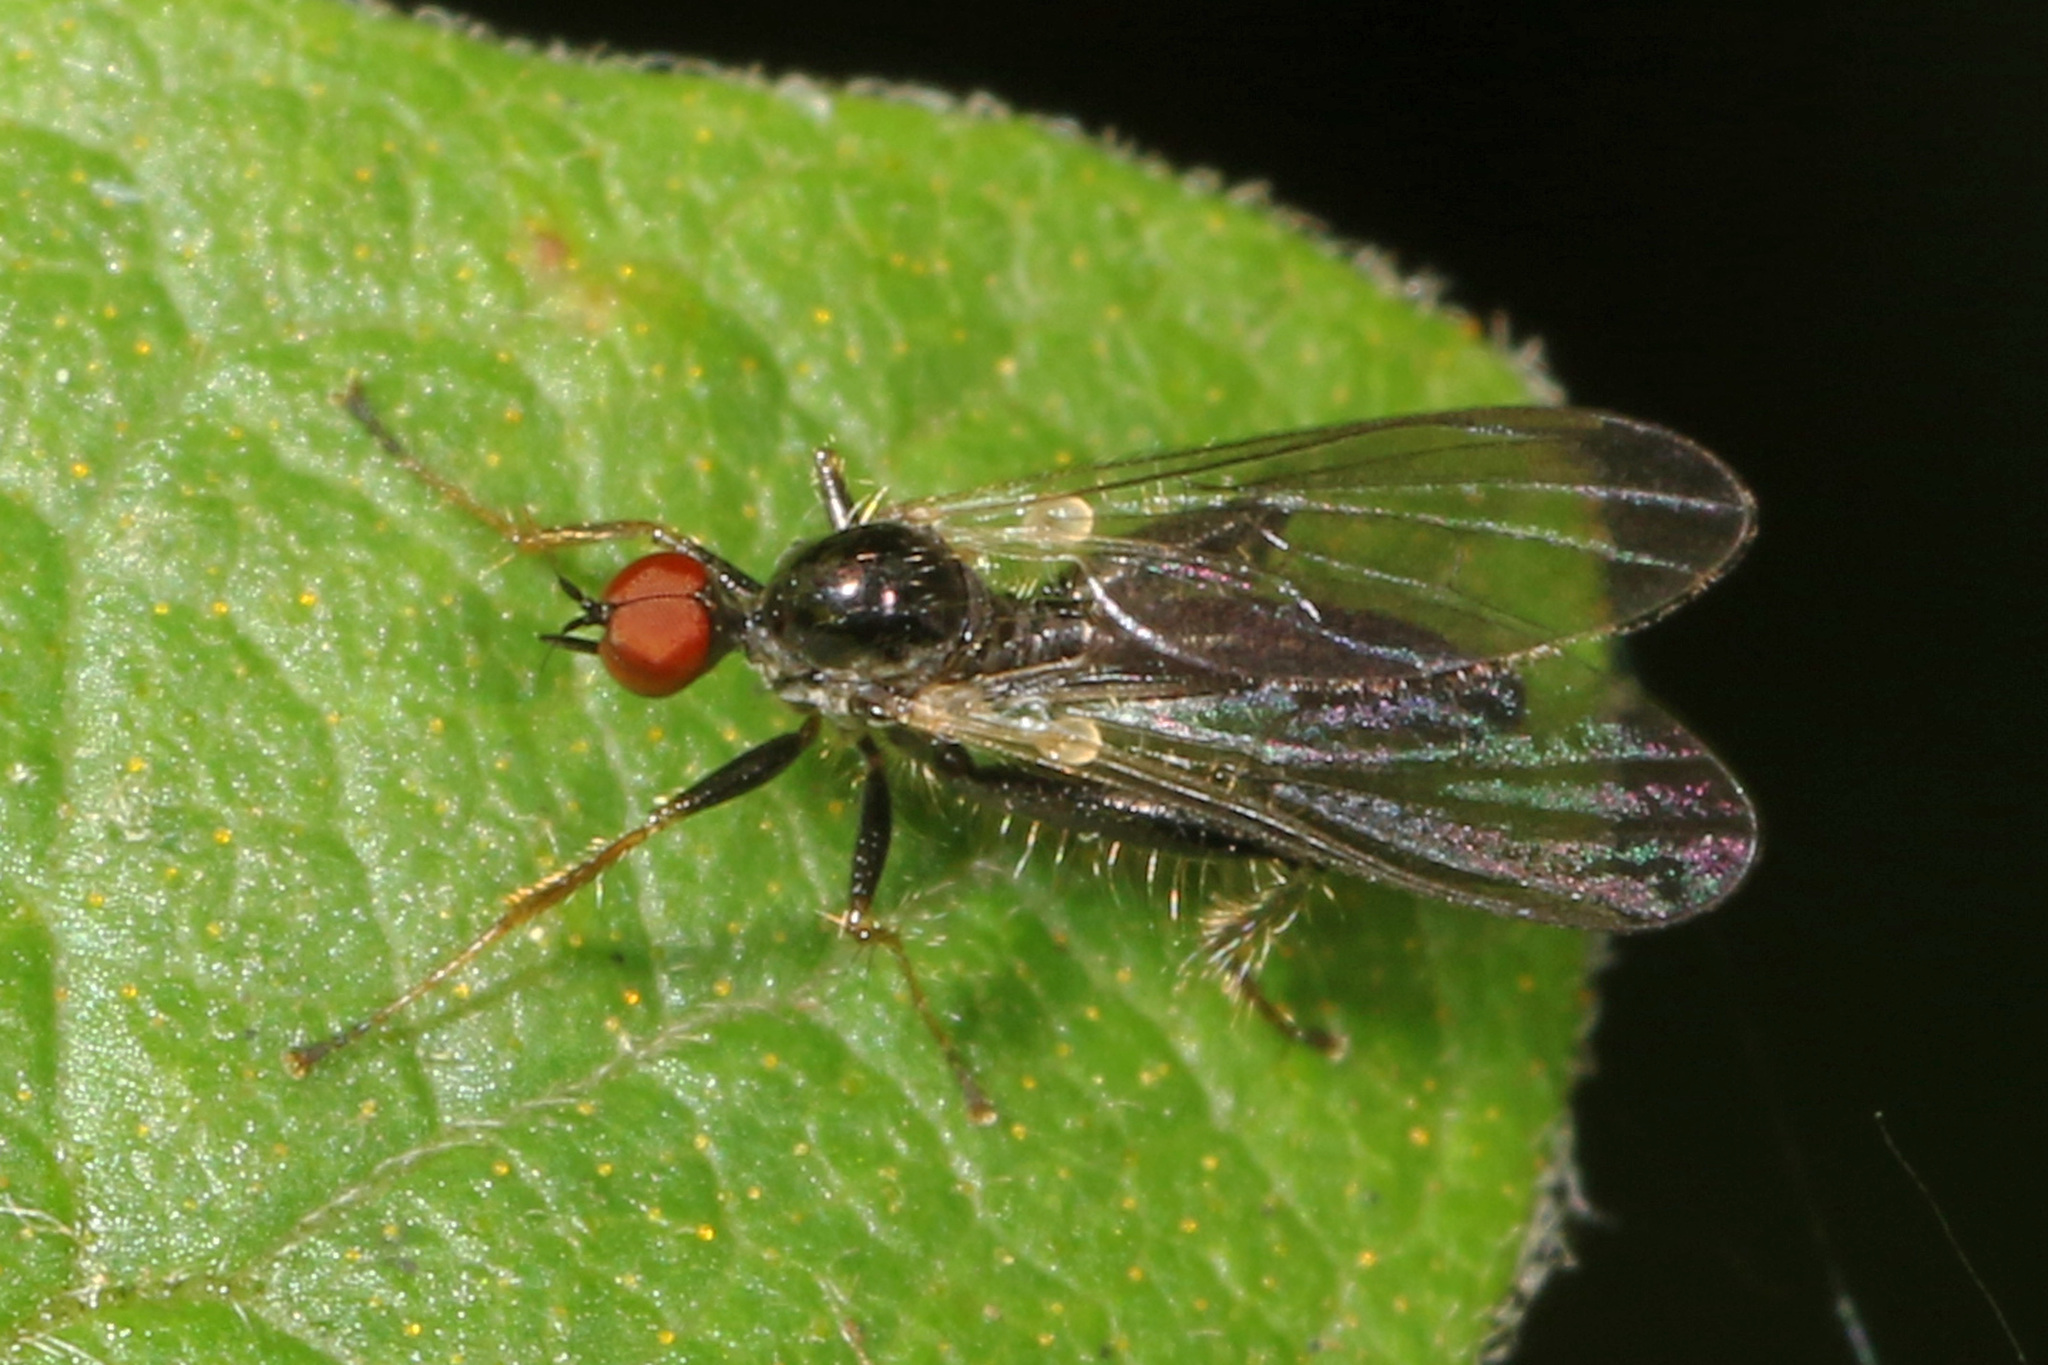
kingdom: Animalia
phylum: Arthropoda
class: Insecta
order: Diptera
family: Hybotidae
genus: Hybos
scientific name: Hybos reversus
